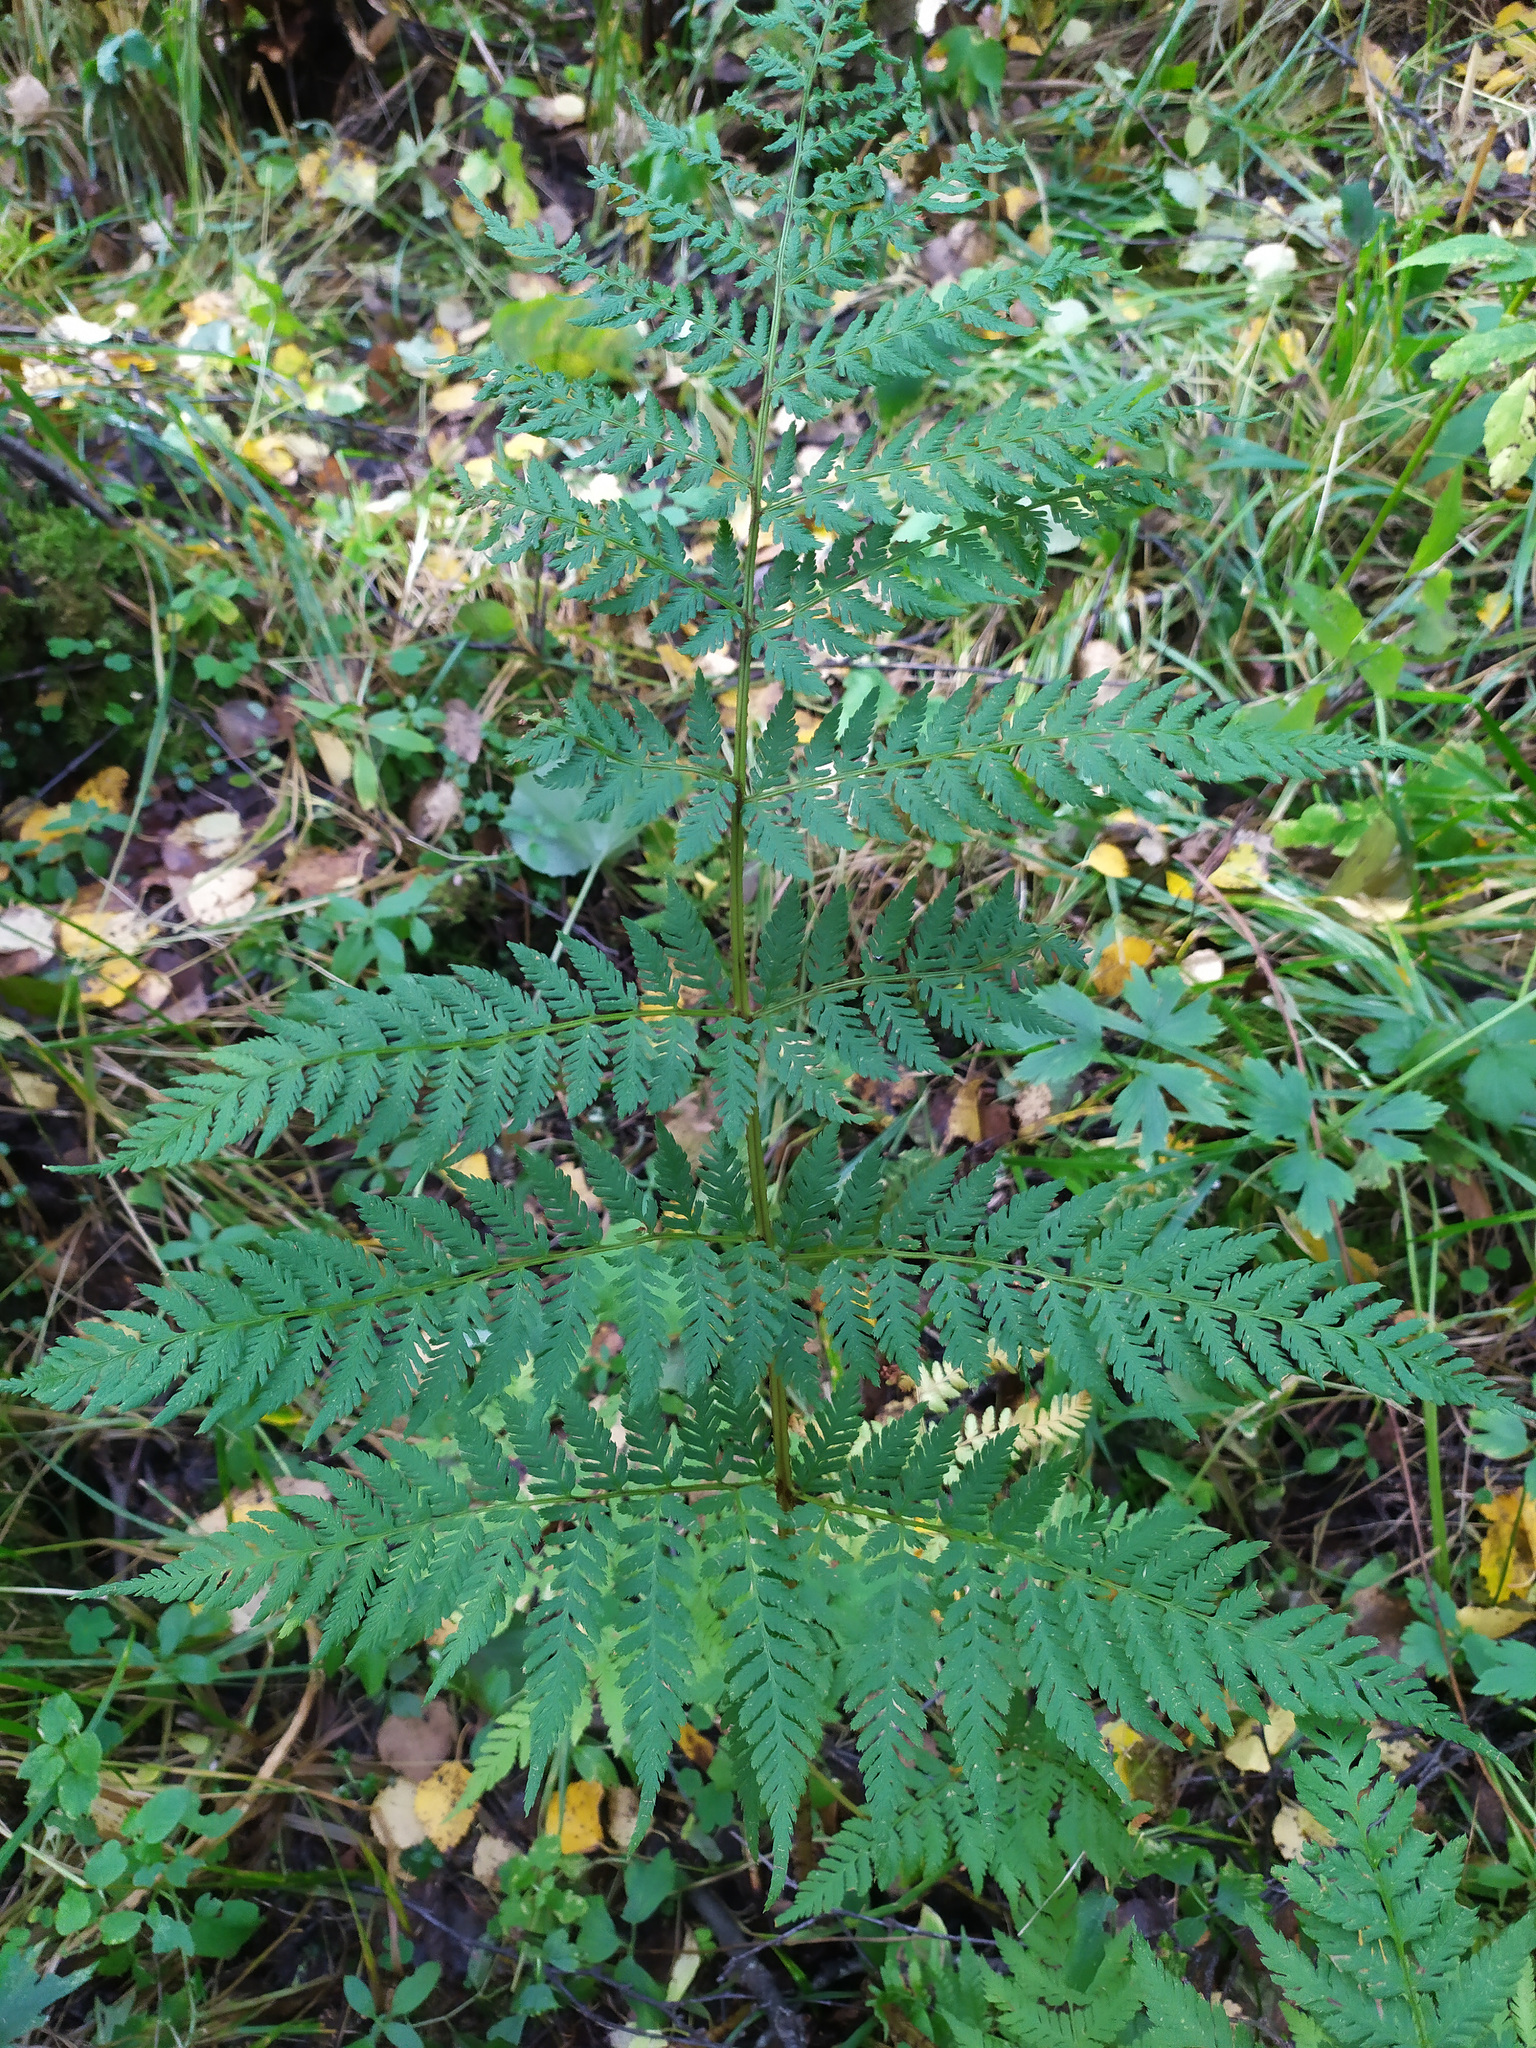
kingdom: Plantae
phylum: Tracheophyta
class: Polypodiopsida
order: Polypodiales
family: Dryopteridaceae
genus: Dryopteris
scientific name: Dryopteris expansa
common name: Northern buckler fern
